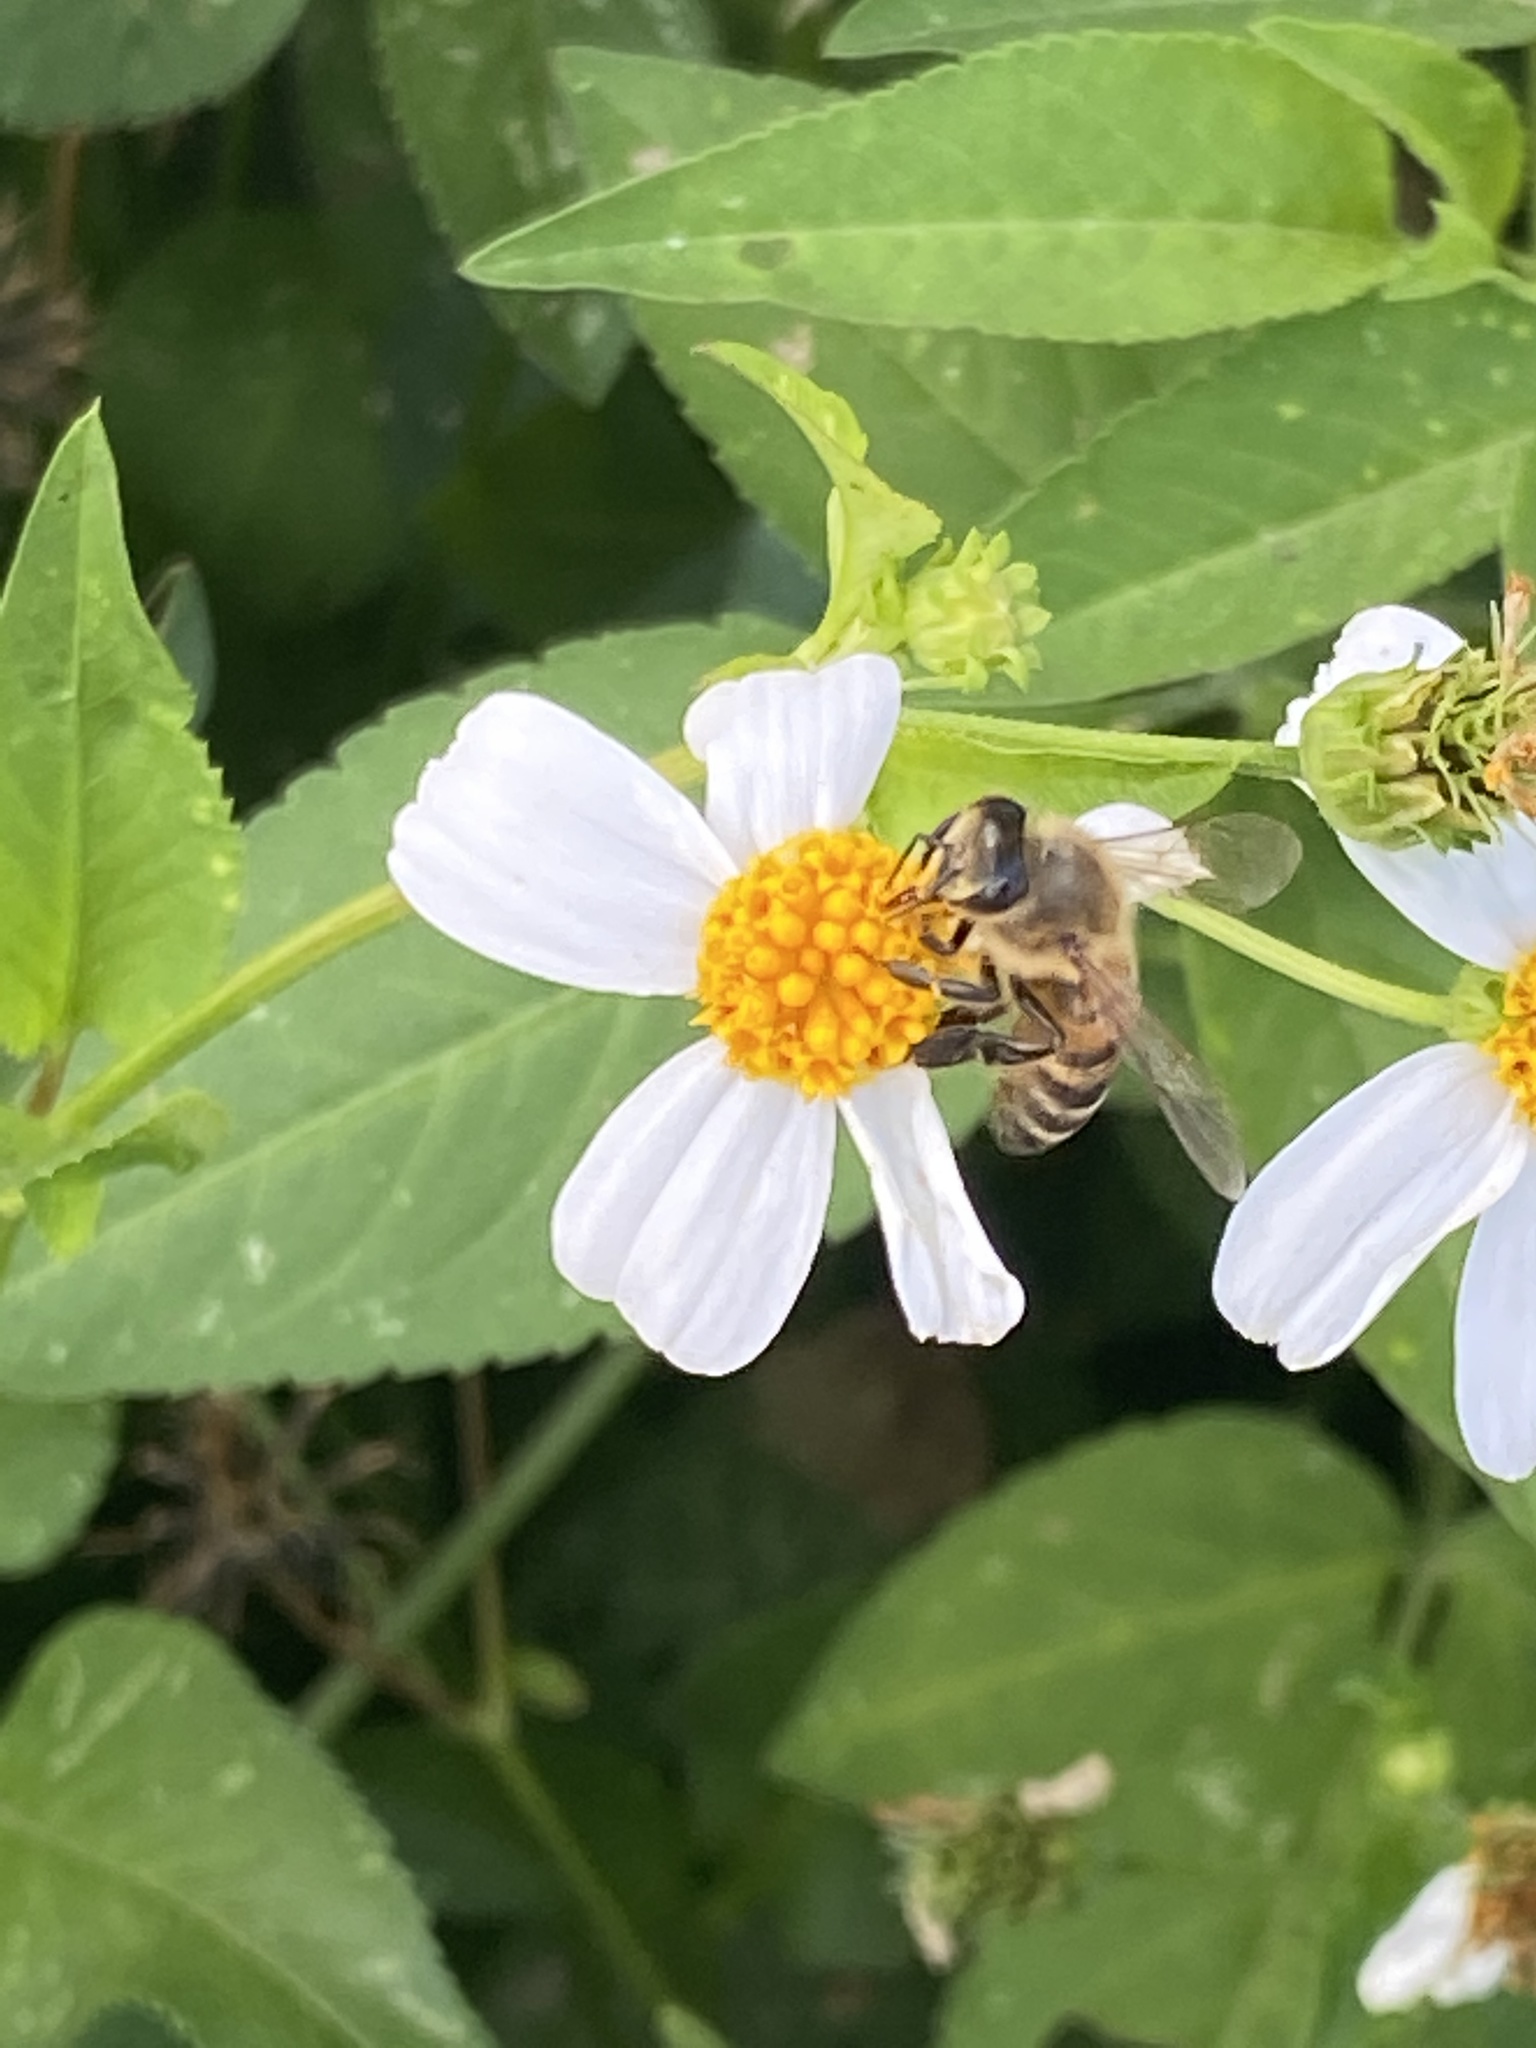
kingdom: Animalia
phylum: Arthropoda
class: Insecta
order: Hymenoptera
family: Apidae
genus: Apis
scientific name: Apis mellifera
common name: Honey bee
